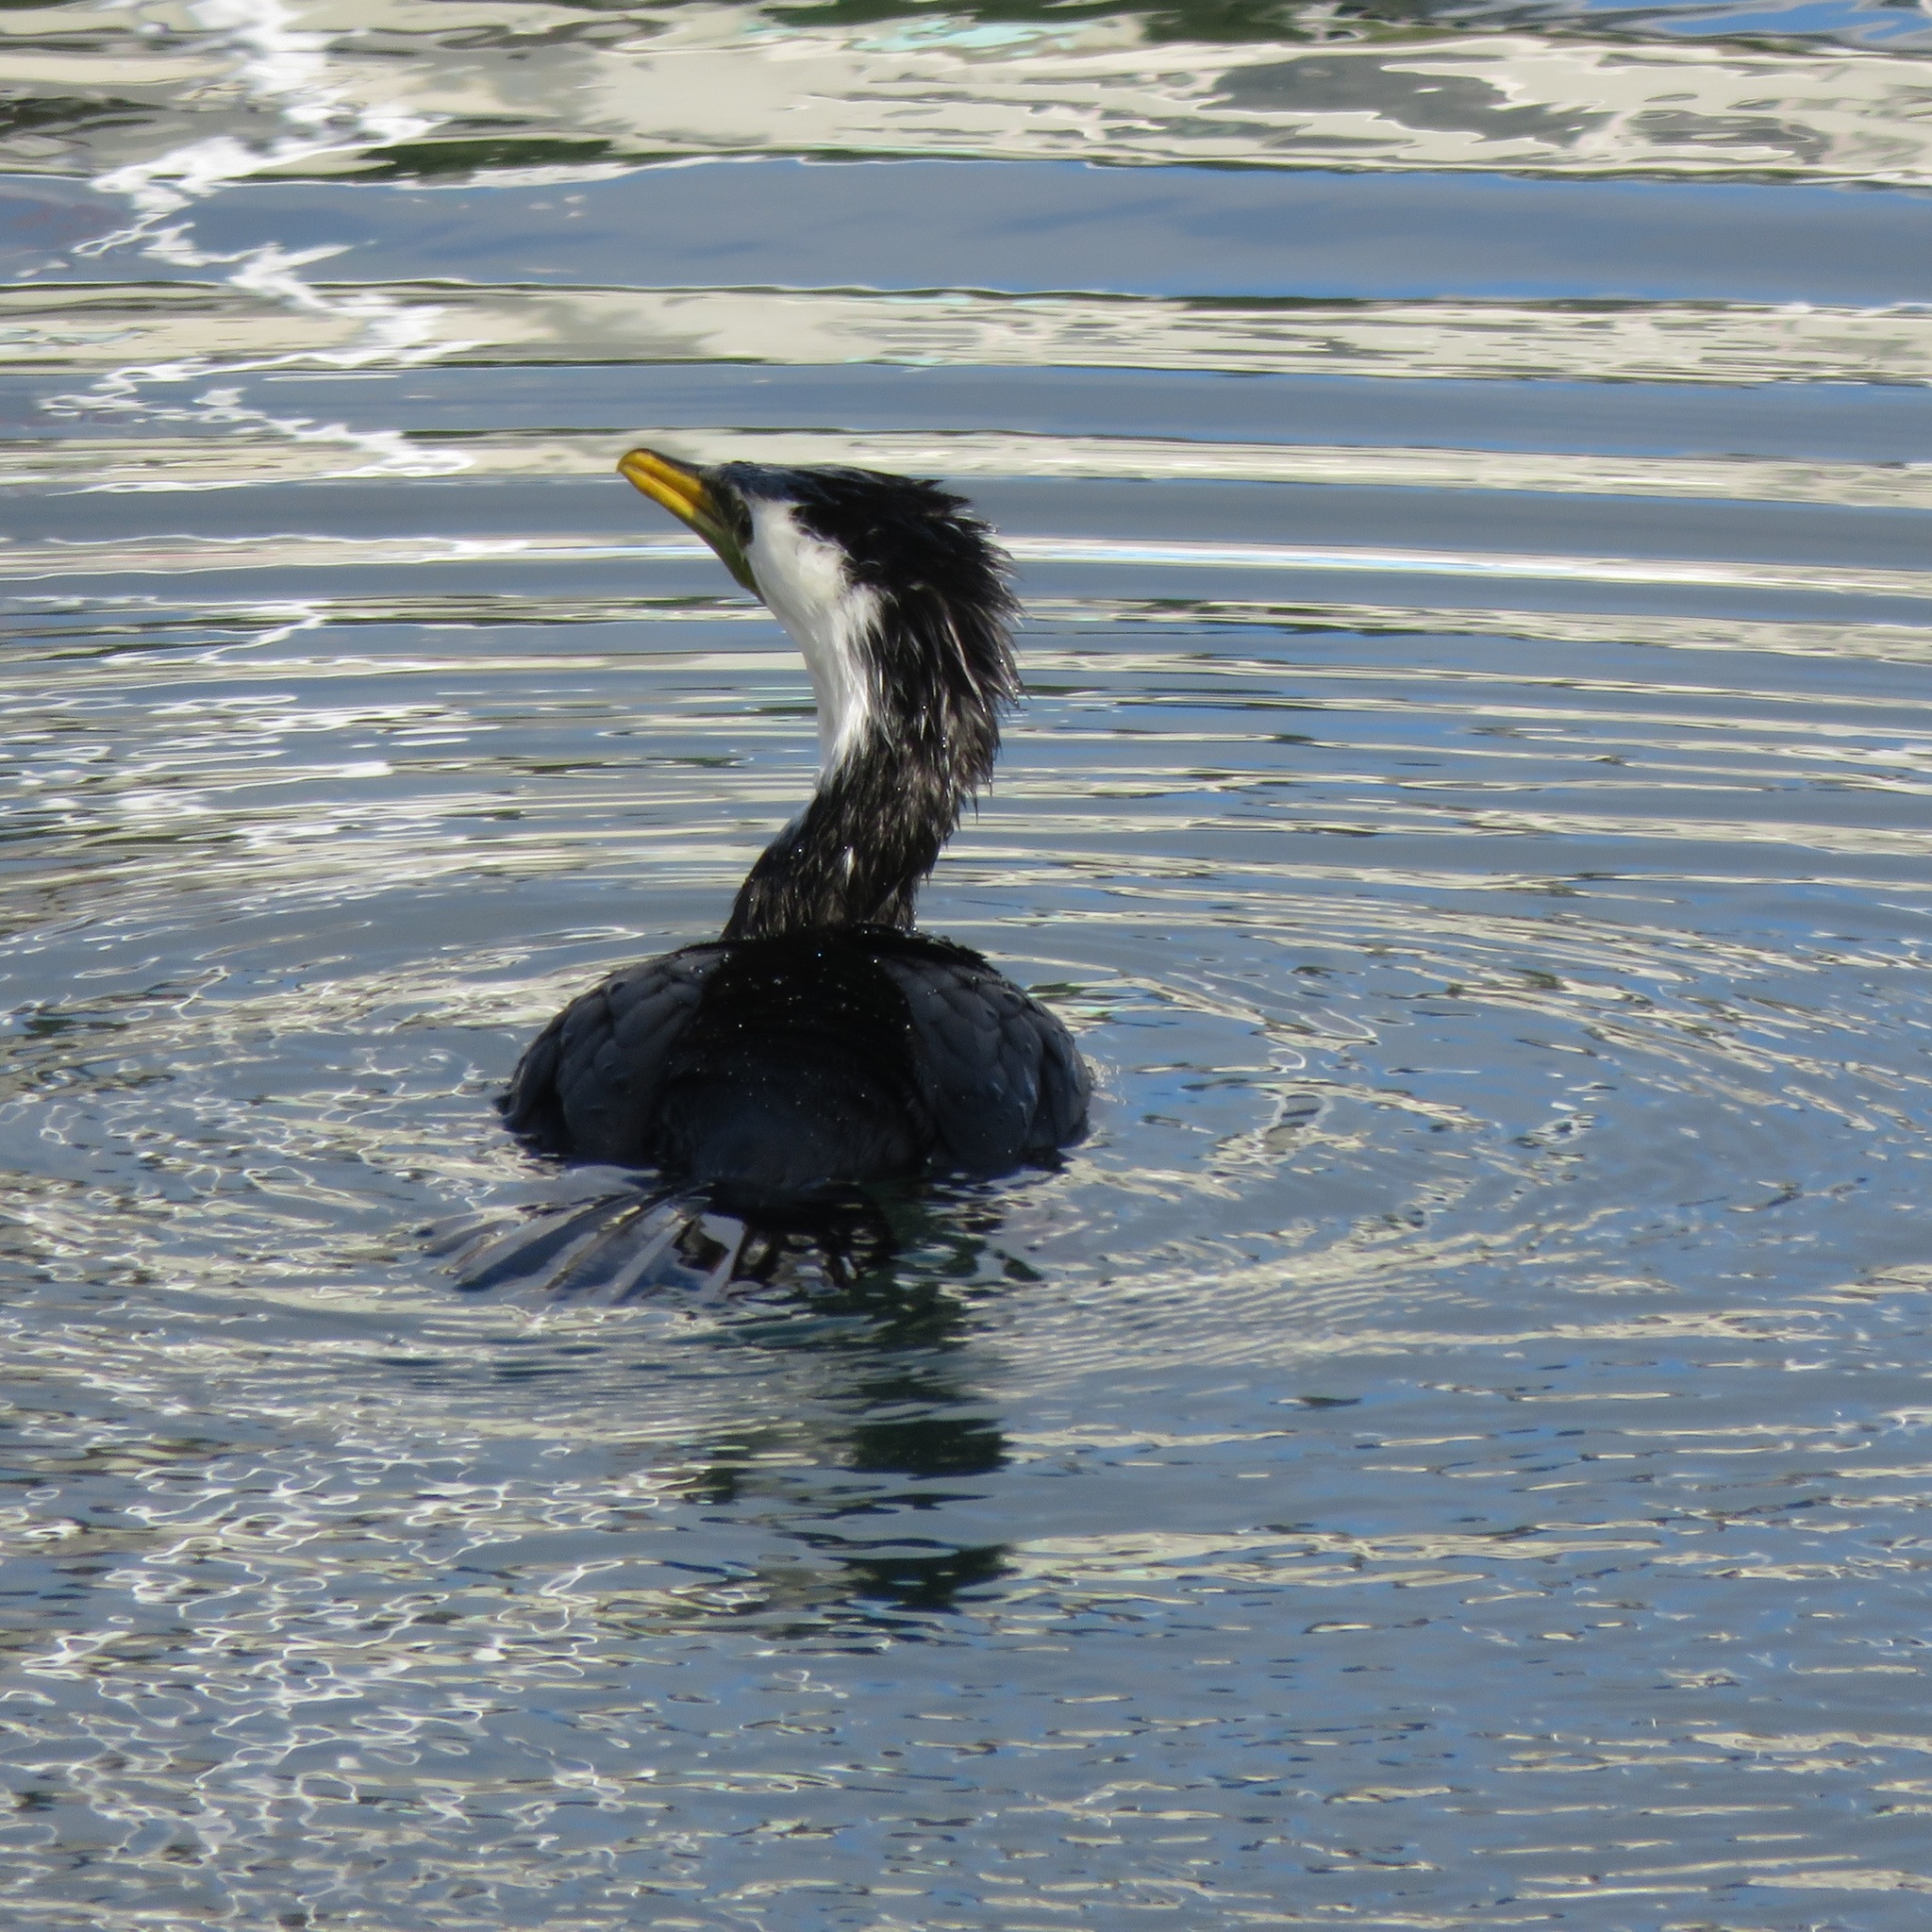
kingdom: Animalia
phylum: Chordata
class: Aves
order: Suliformes
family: Phalacrocoracidae
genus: Microcarbo
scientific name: Microcarbo melanoleucos
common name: Little pied cormorant
